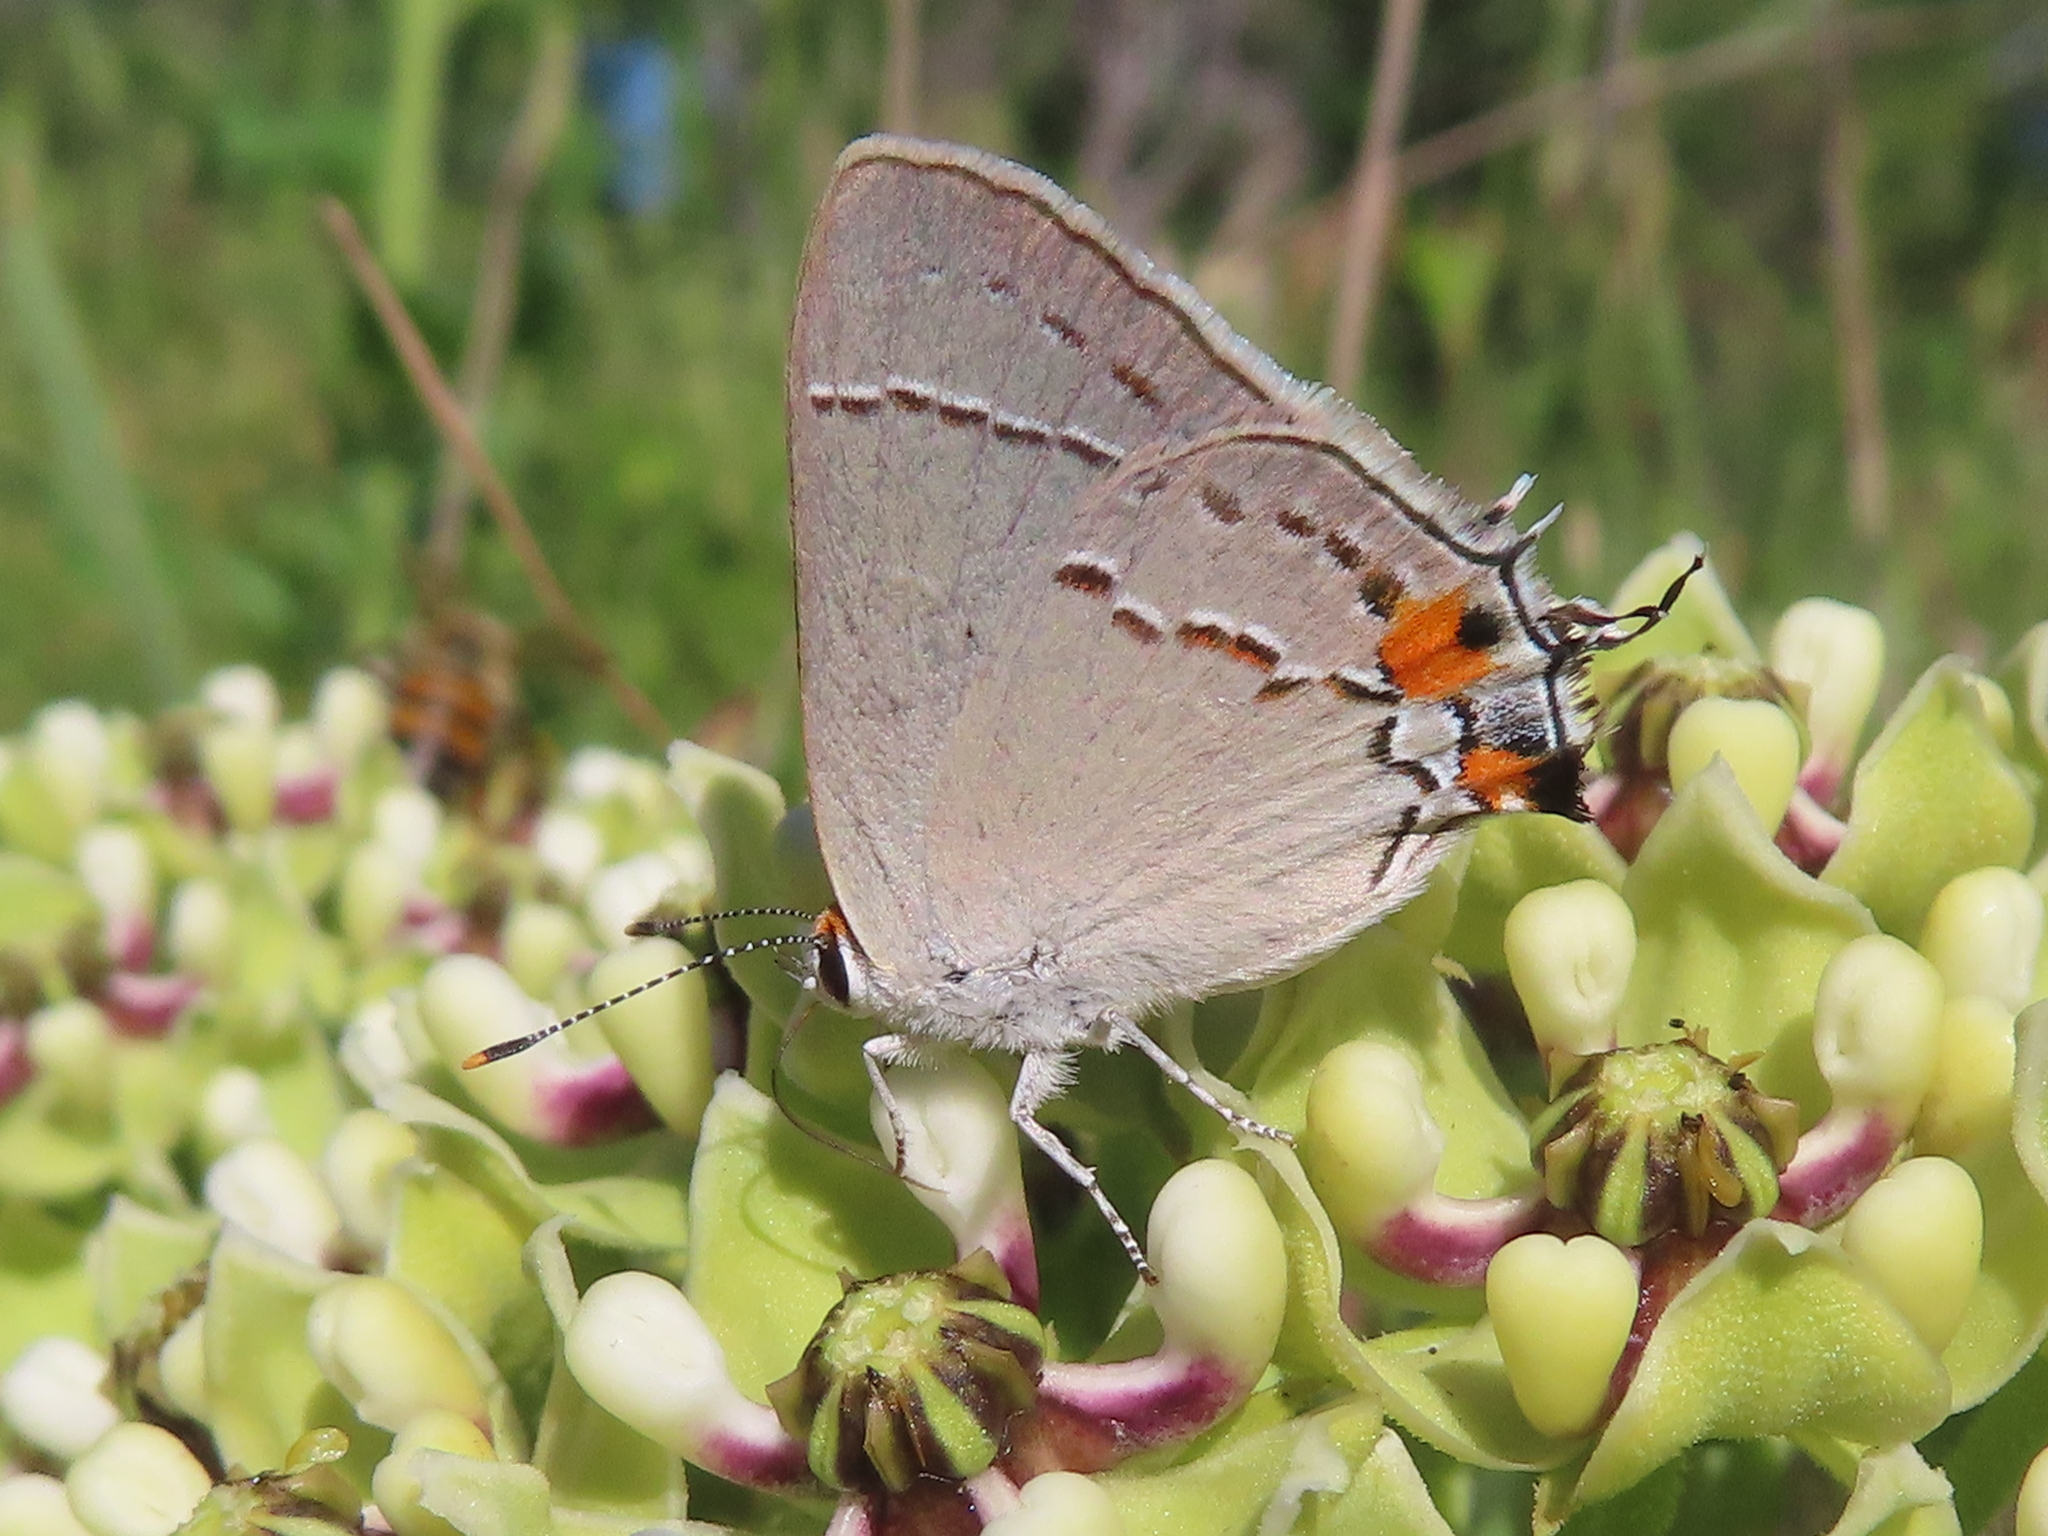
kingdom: Animalia
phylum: Arthropoda
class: Insecta
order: Lepidoptera
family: Lycaenidae
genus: Strymon
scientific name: Strymon melinus
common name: Gray hairstreak
